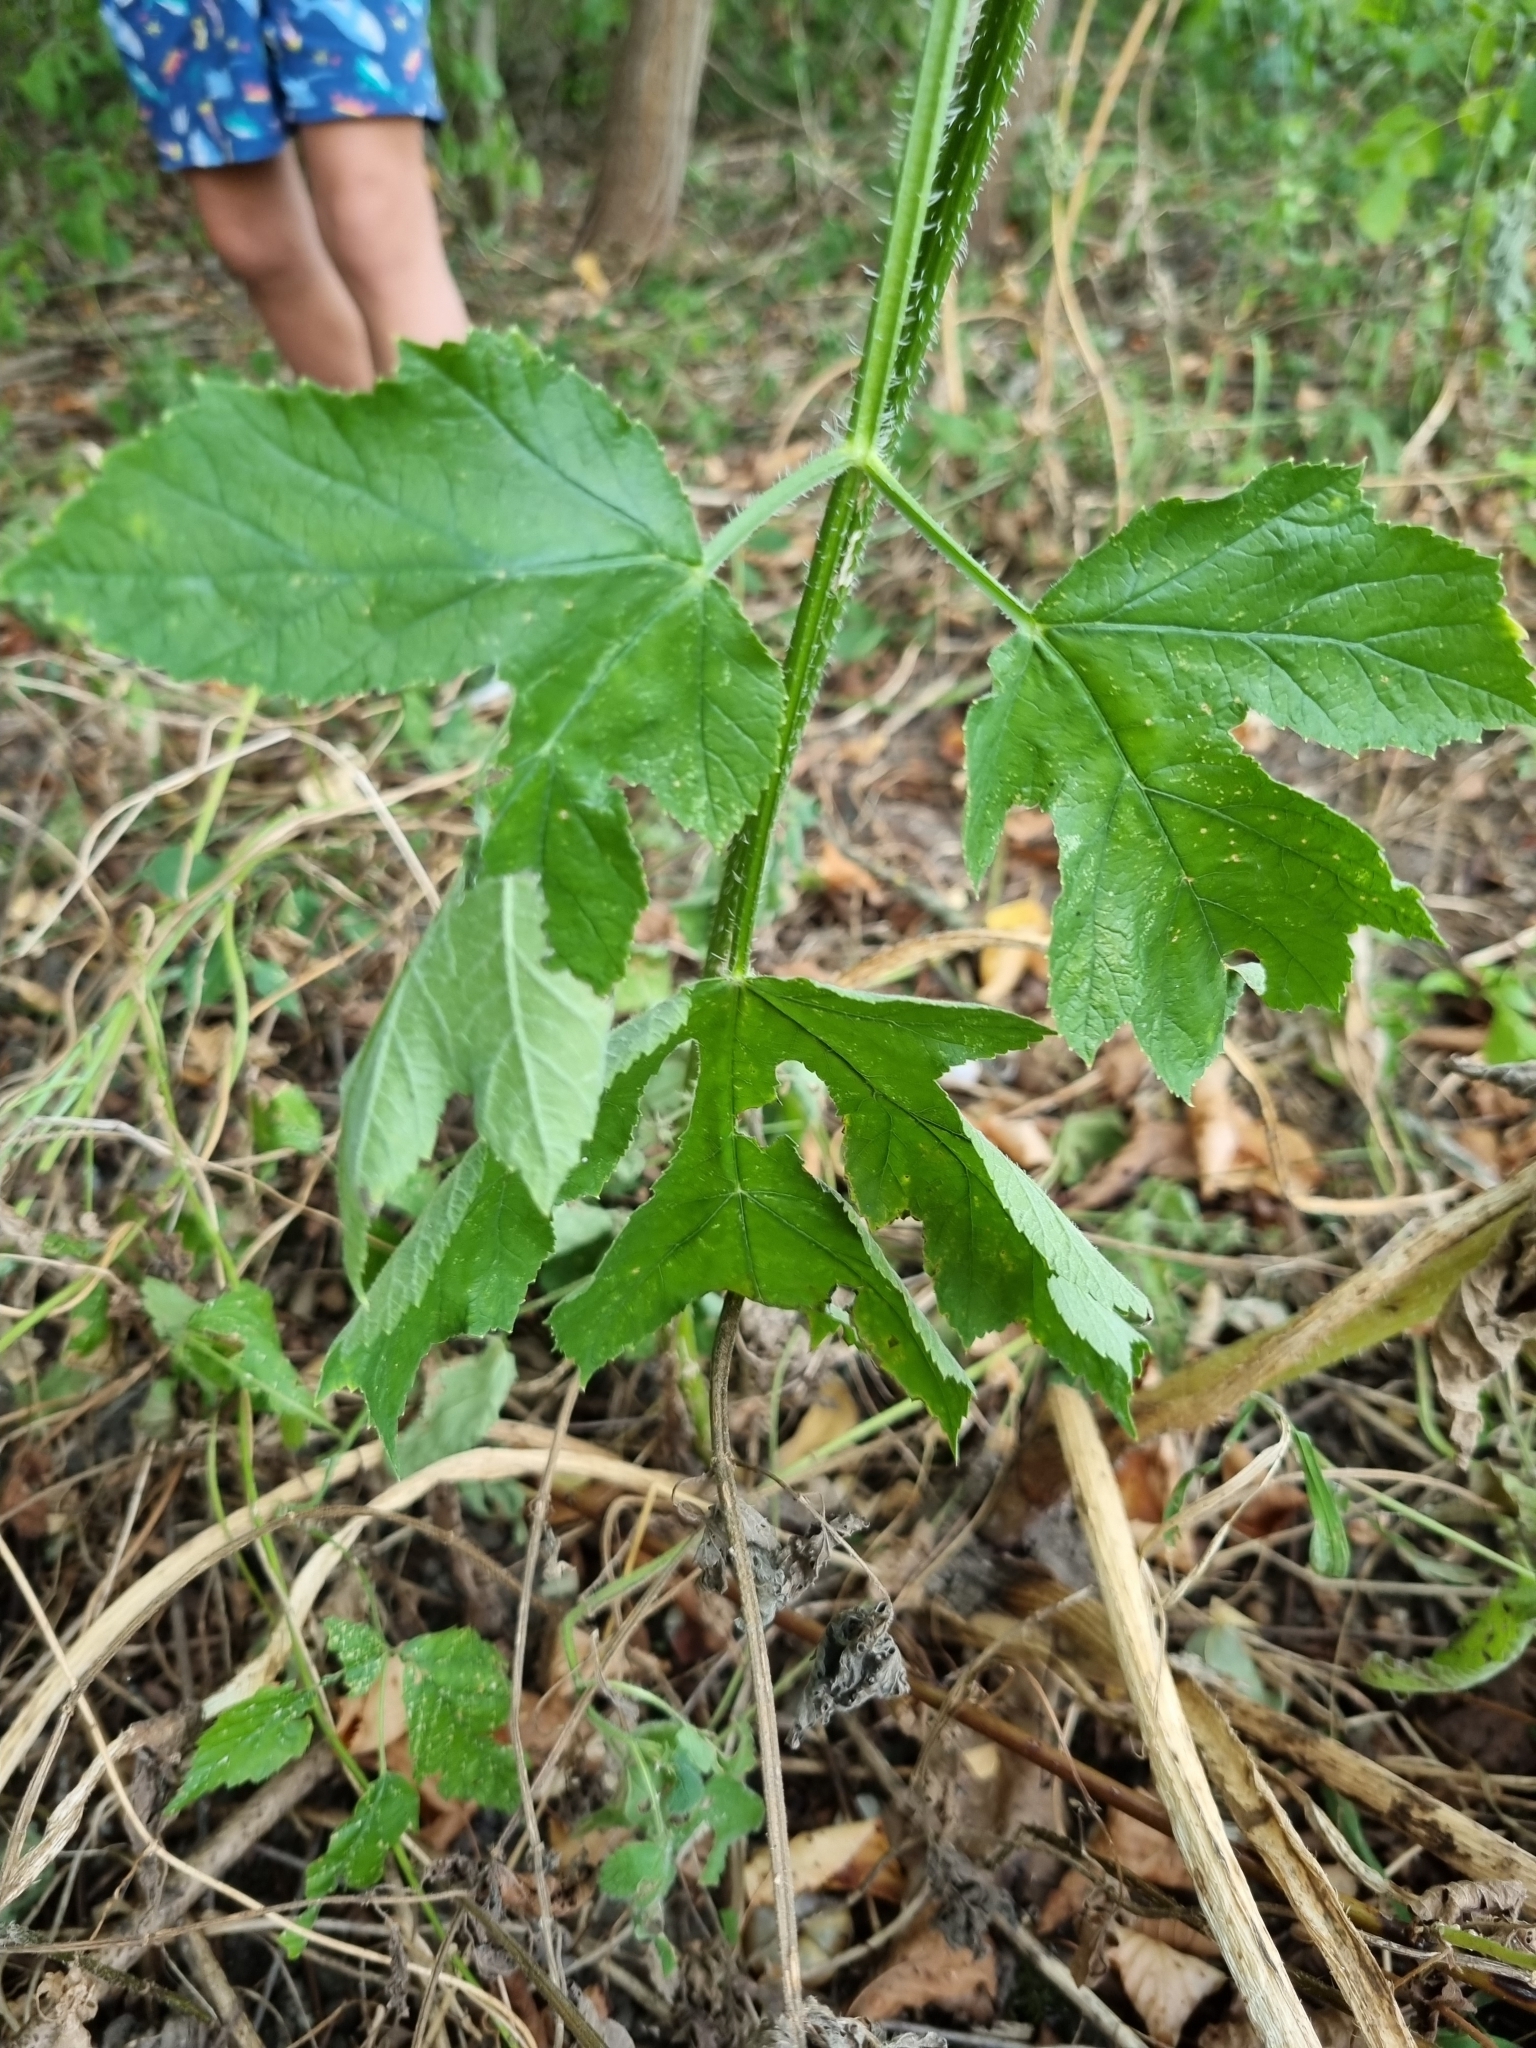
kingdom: Plantae
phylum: Tracheophyta
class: Magnoliopsida
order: Apiales
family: Apiaceae
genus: Heracleum
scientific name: Heracleum sphondylium
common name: Hogweed
